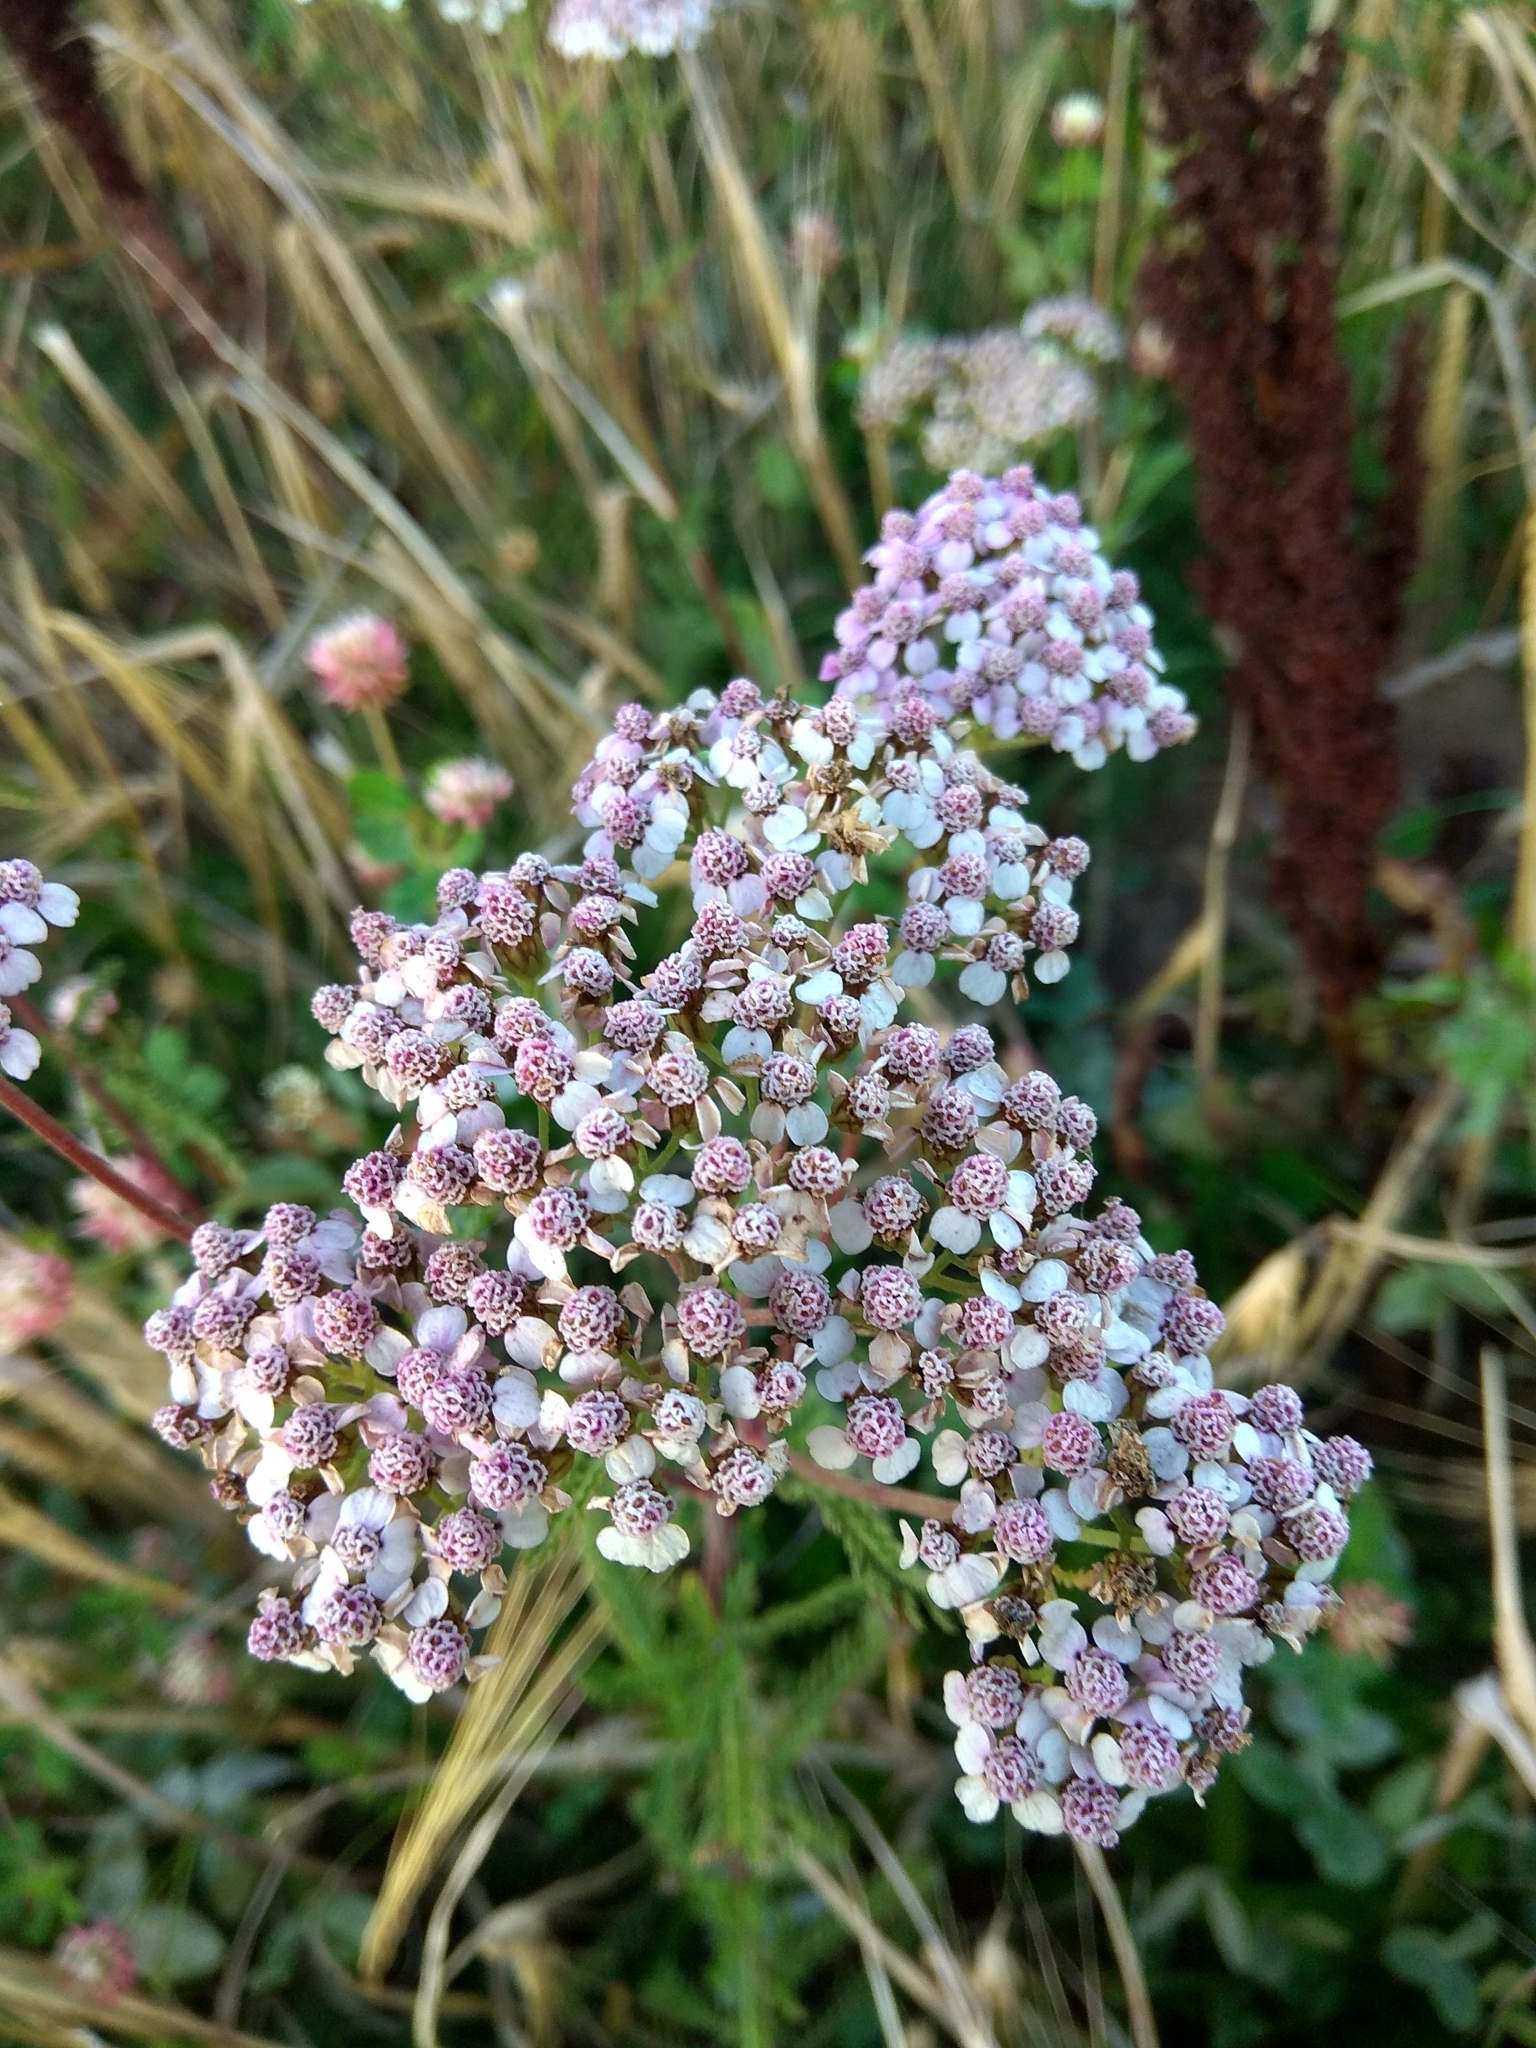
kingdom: Plantae
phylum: Tracheophyta
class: Magnoliopsida
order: Asterales
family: Asteraceae
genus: Achillea
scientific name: Achillea millefolium
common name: Yarrow
